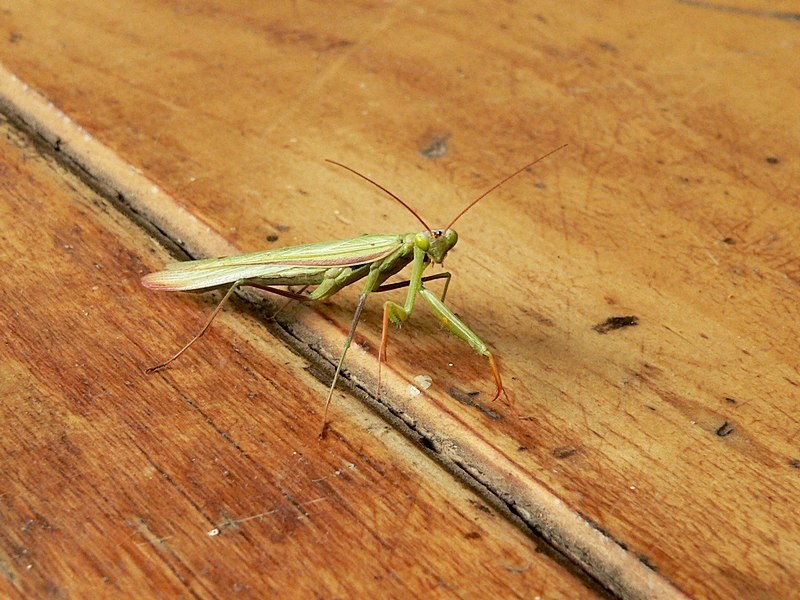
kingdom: Animalia
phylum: Arthropoda
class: Insecta
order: Mantodea
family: Mantidae
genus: Mantis
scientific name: Mantis octospilota
